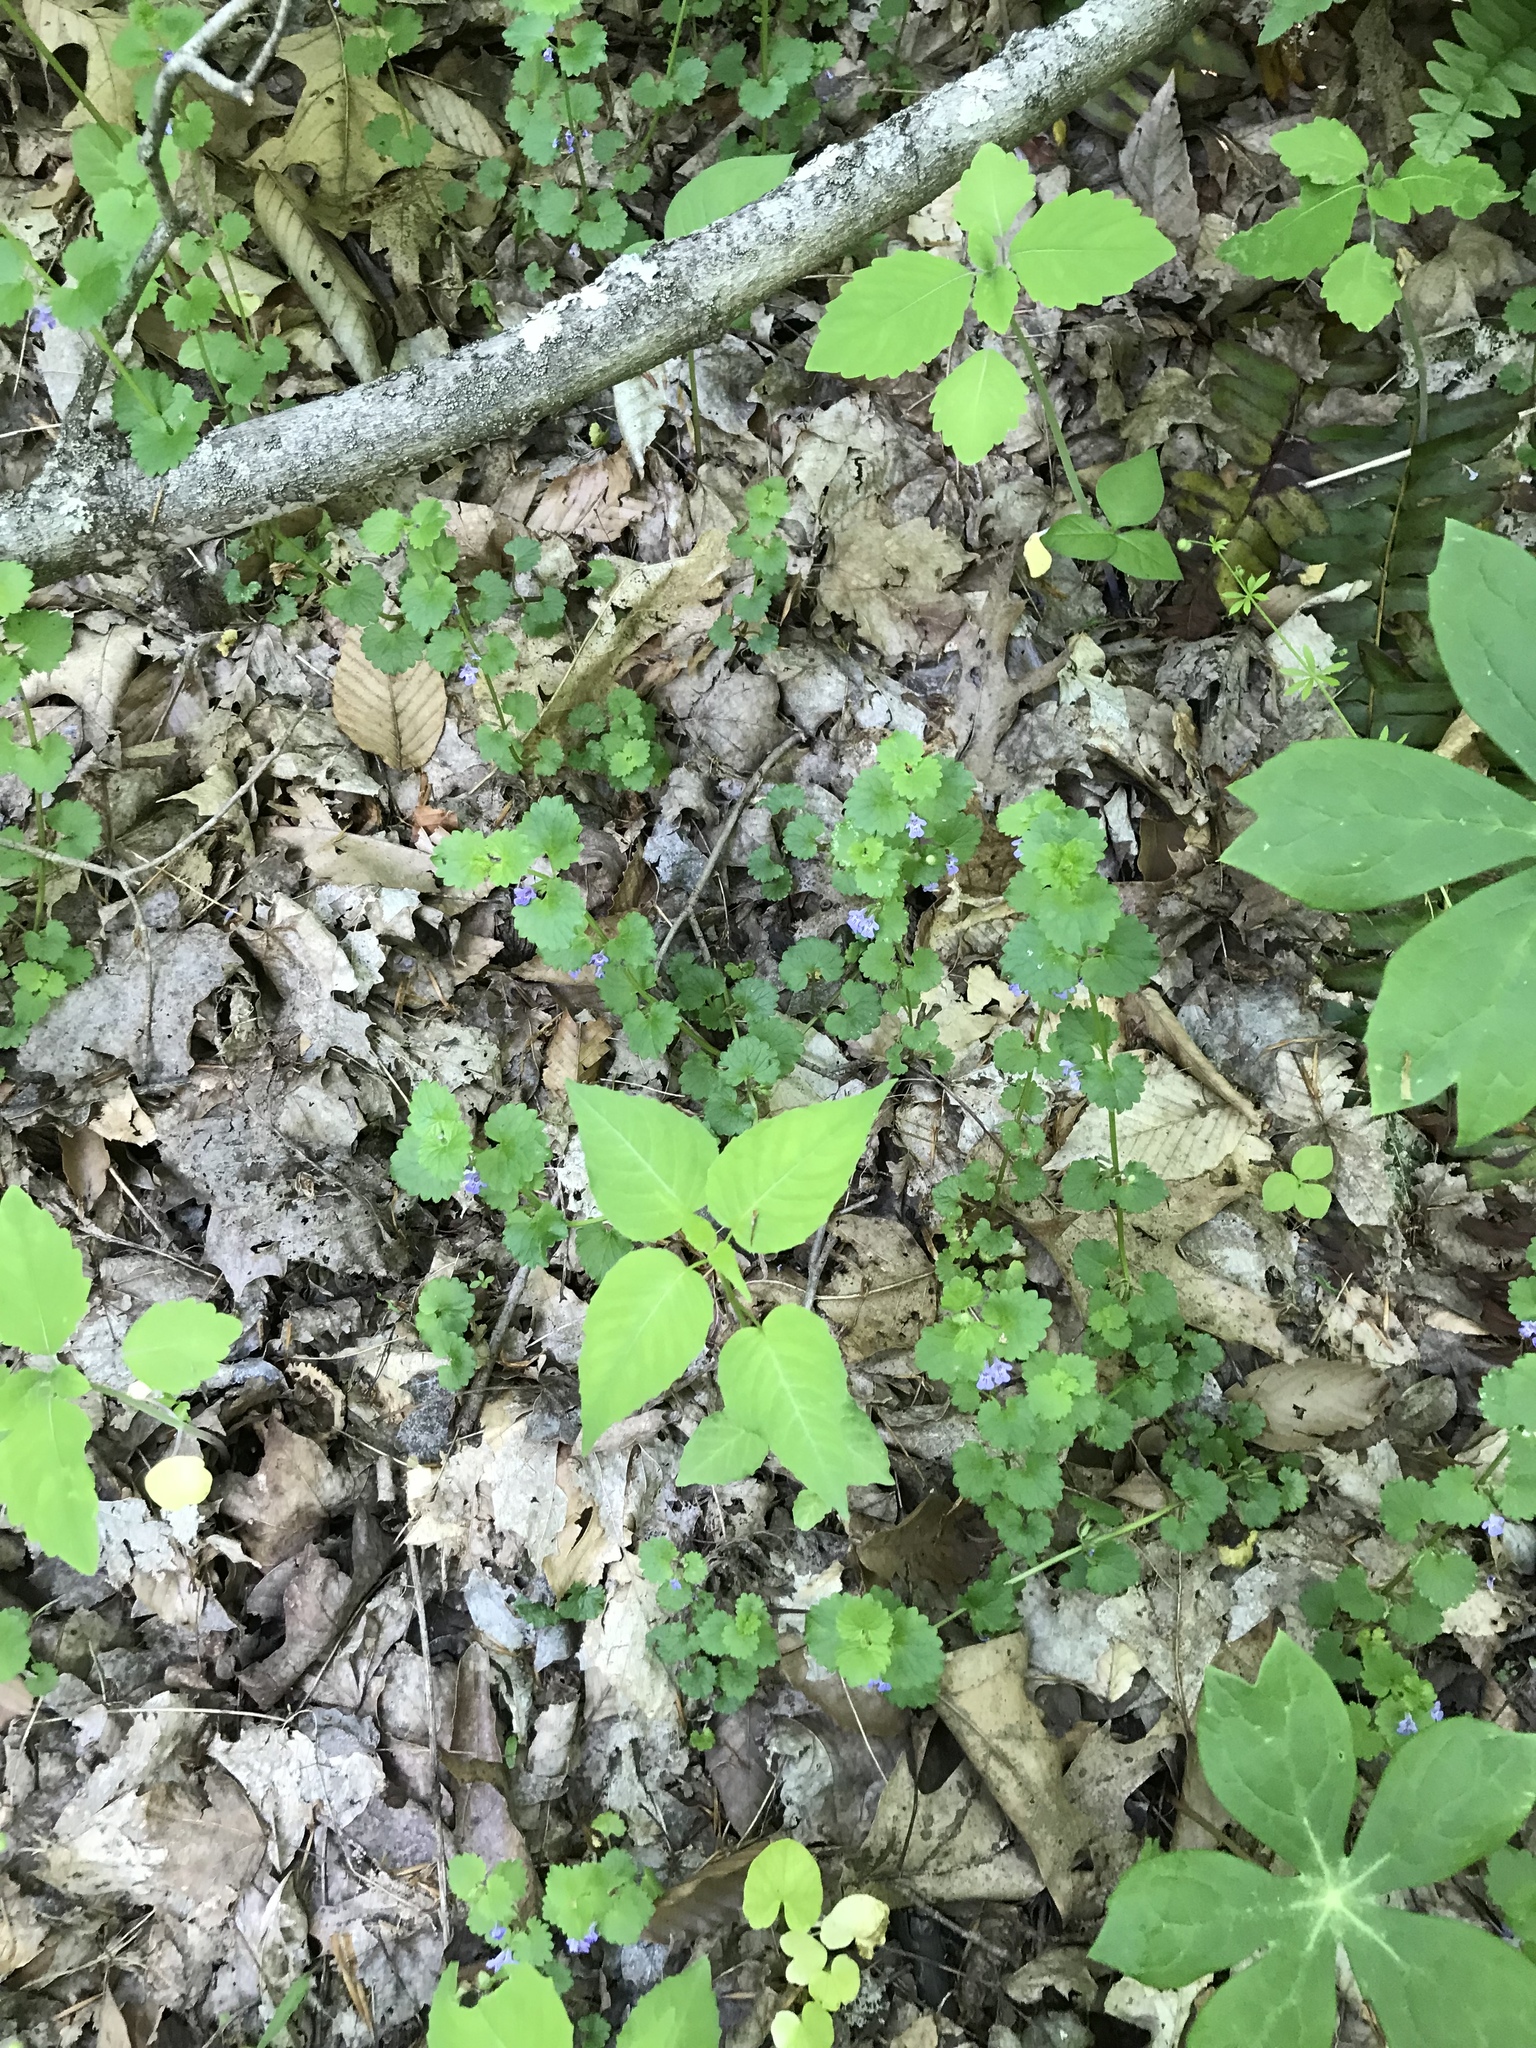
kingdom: Plantae
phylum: Tracheophyta
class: Magnoliopsida
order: Lamiales
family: Lamiaceae
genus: Glechoma
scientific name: Glechoma hederacea
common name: Ground ivy
